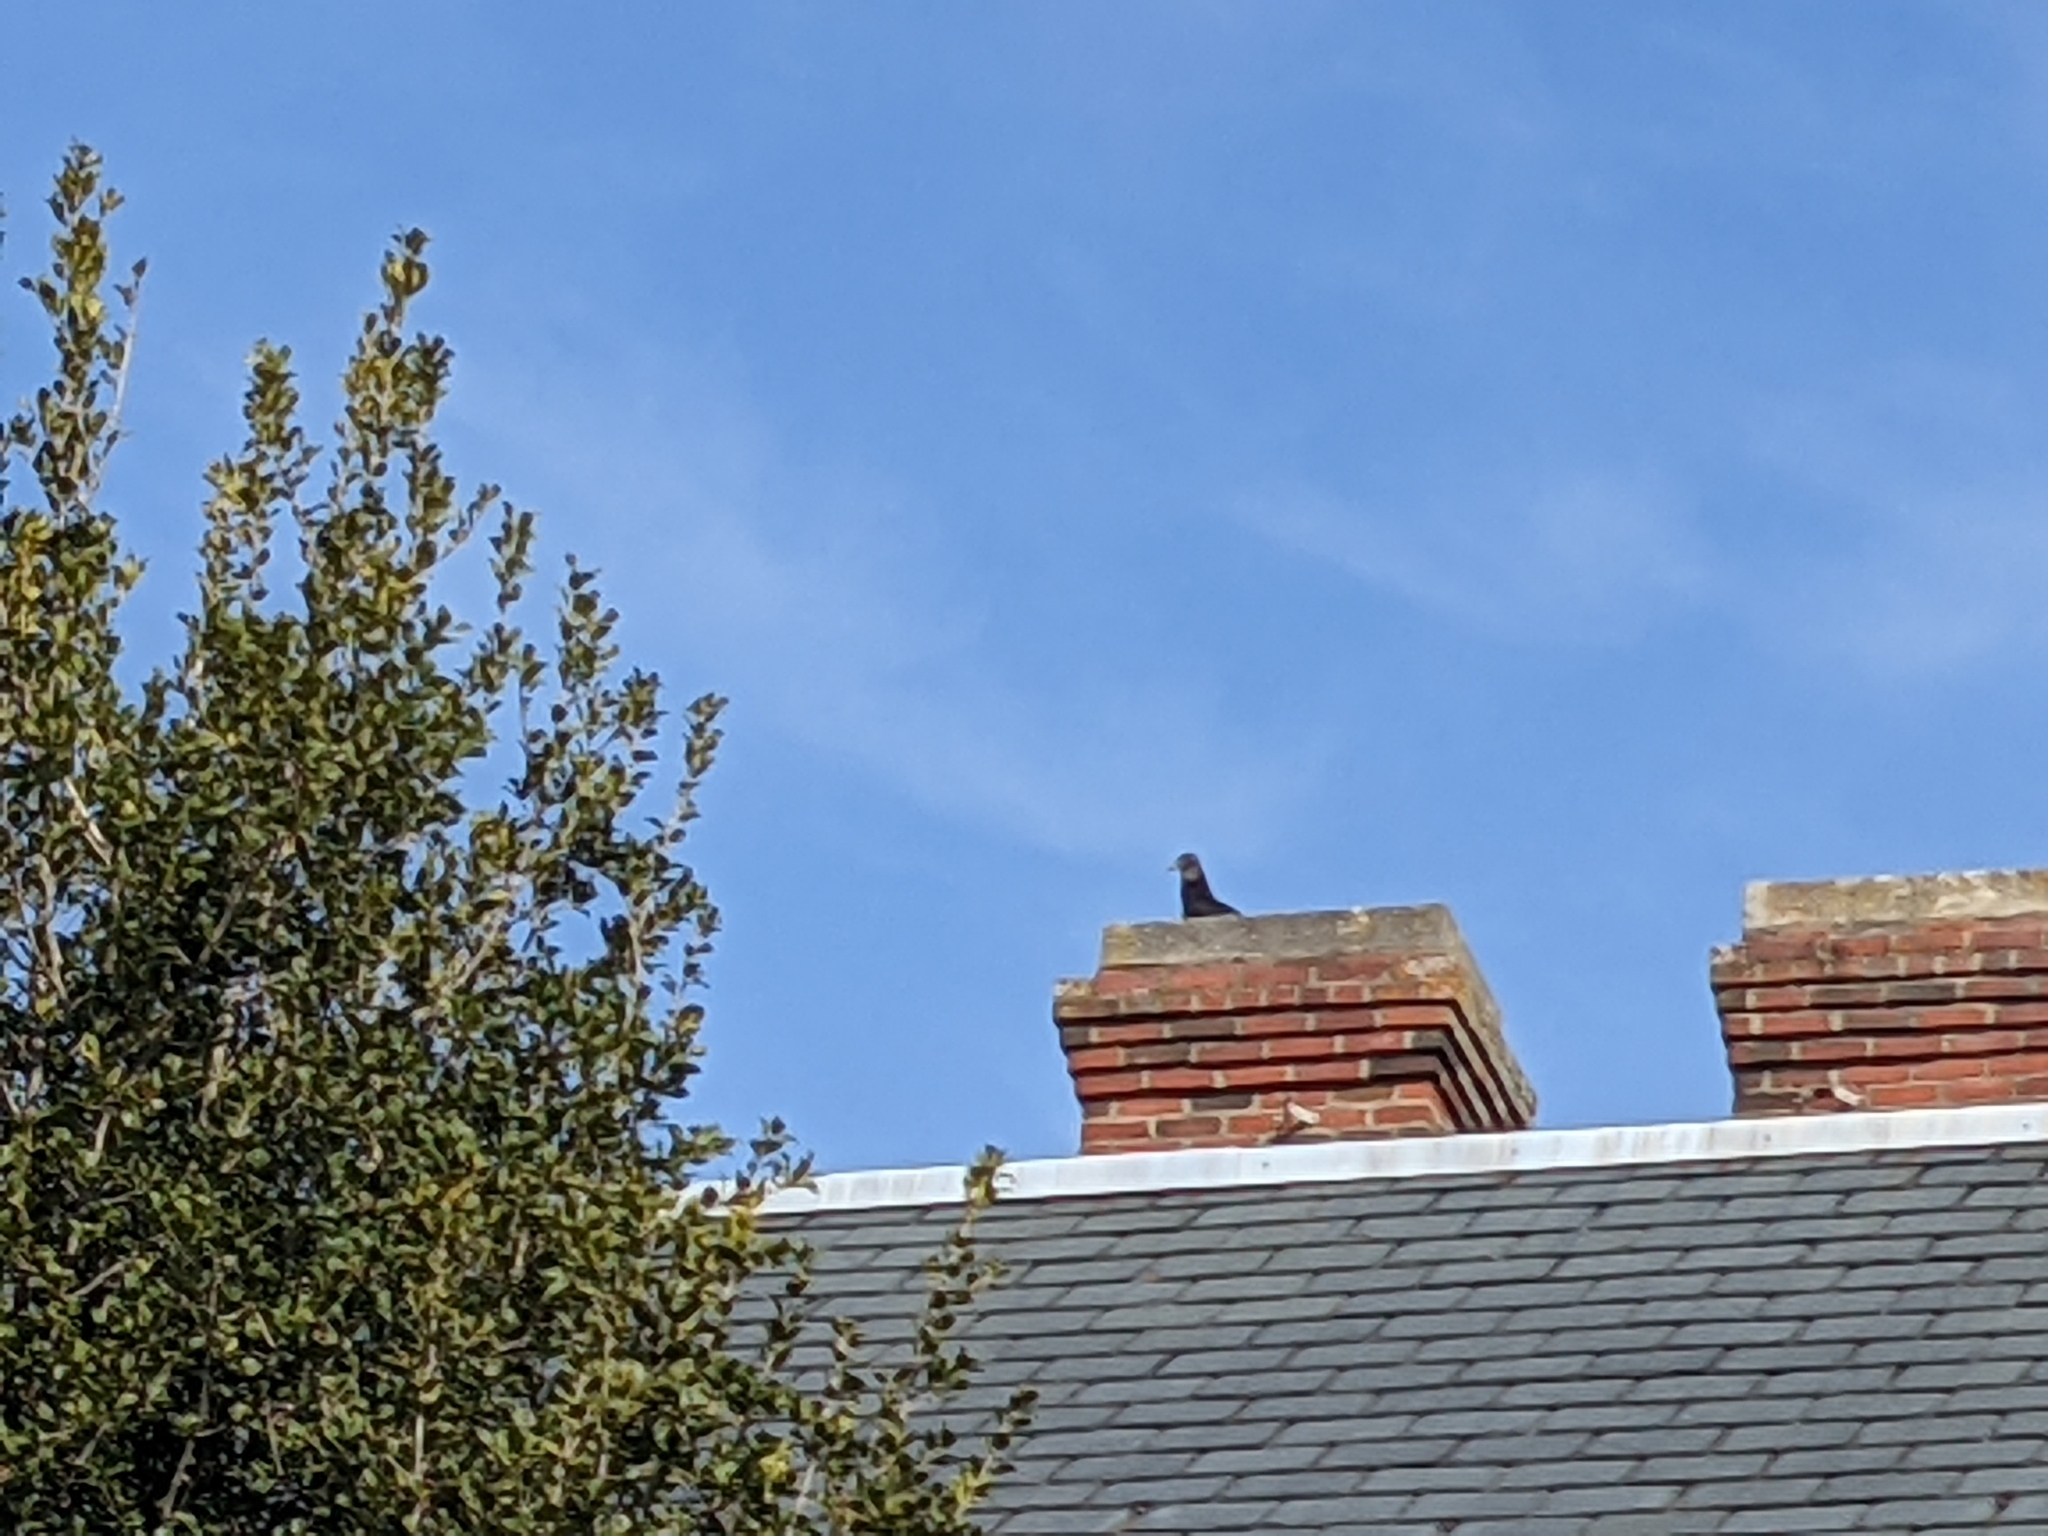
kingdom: Animalia
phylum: Chordata
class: Aves
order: Accipitriformes
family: Cathartidae
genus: Coragyps
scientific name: Coragyps atratus
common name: Black vulture
